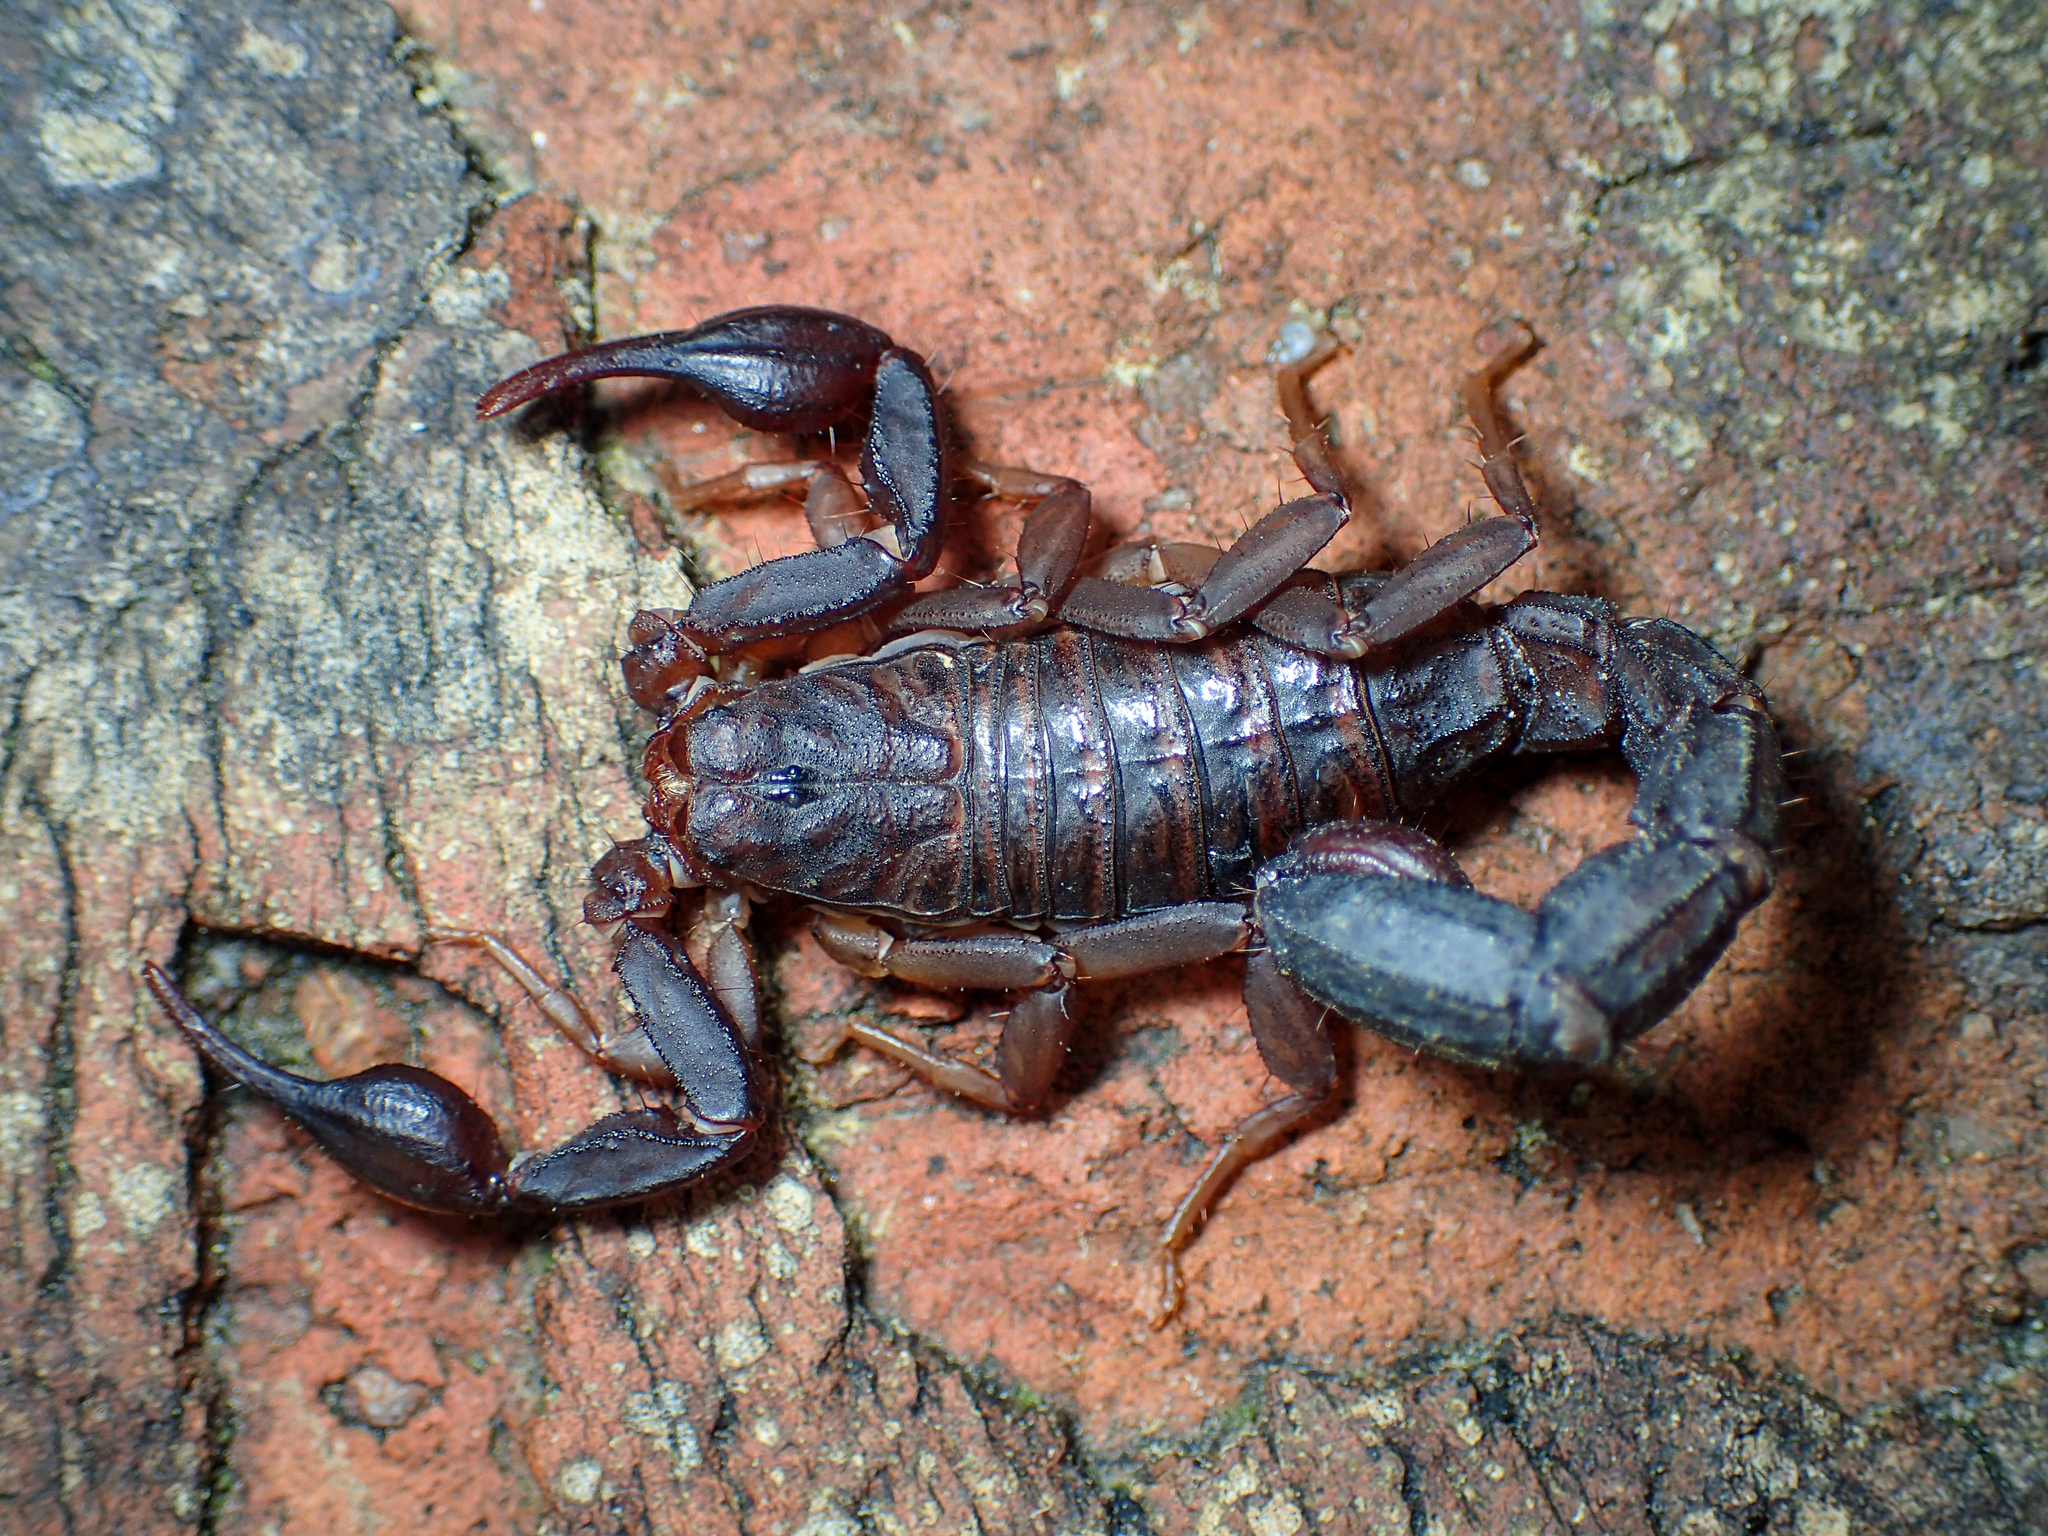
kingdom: Animalia
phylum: Arthropoda
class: Arachnida
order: Scorpiones
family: Vaejovidae
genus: Vaejovis
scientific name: Vaejovis carolinianus
